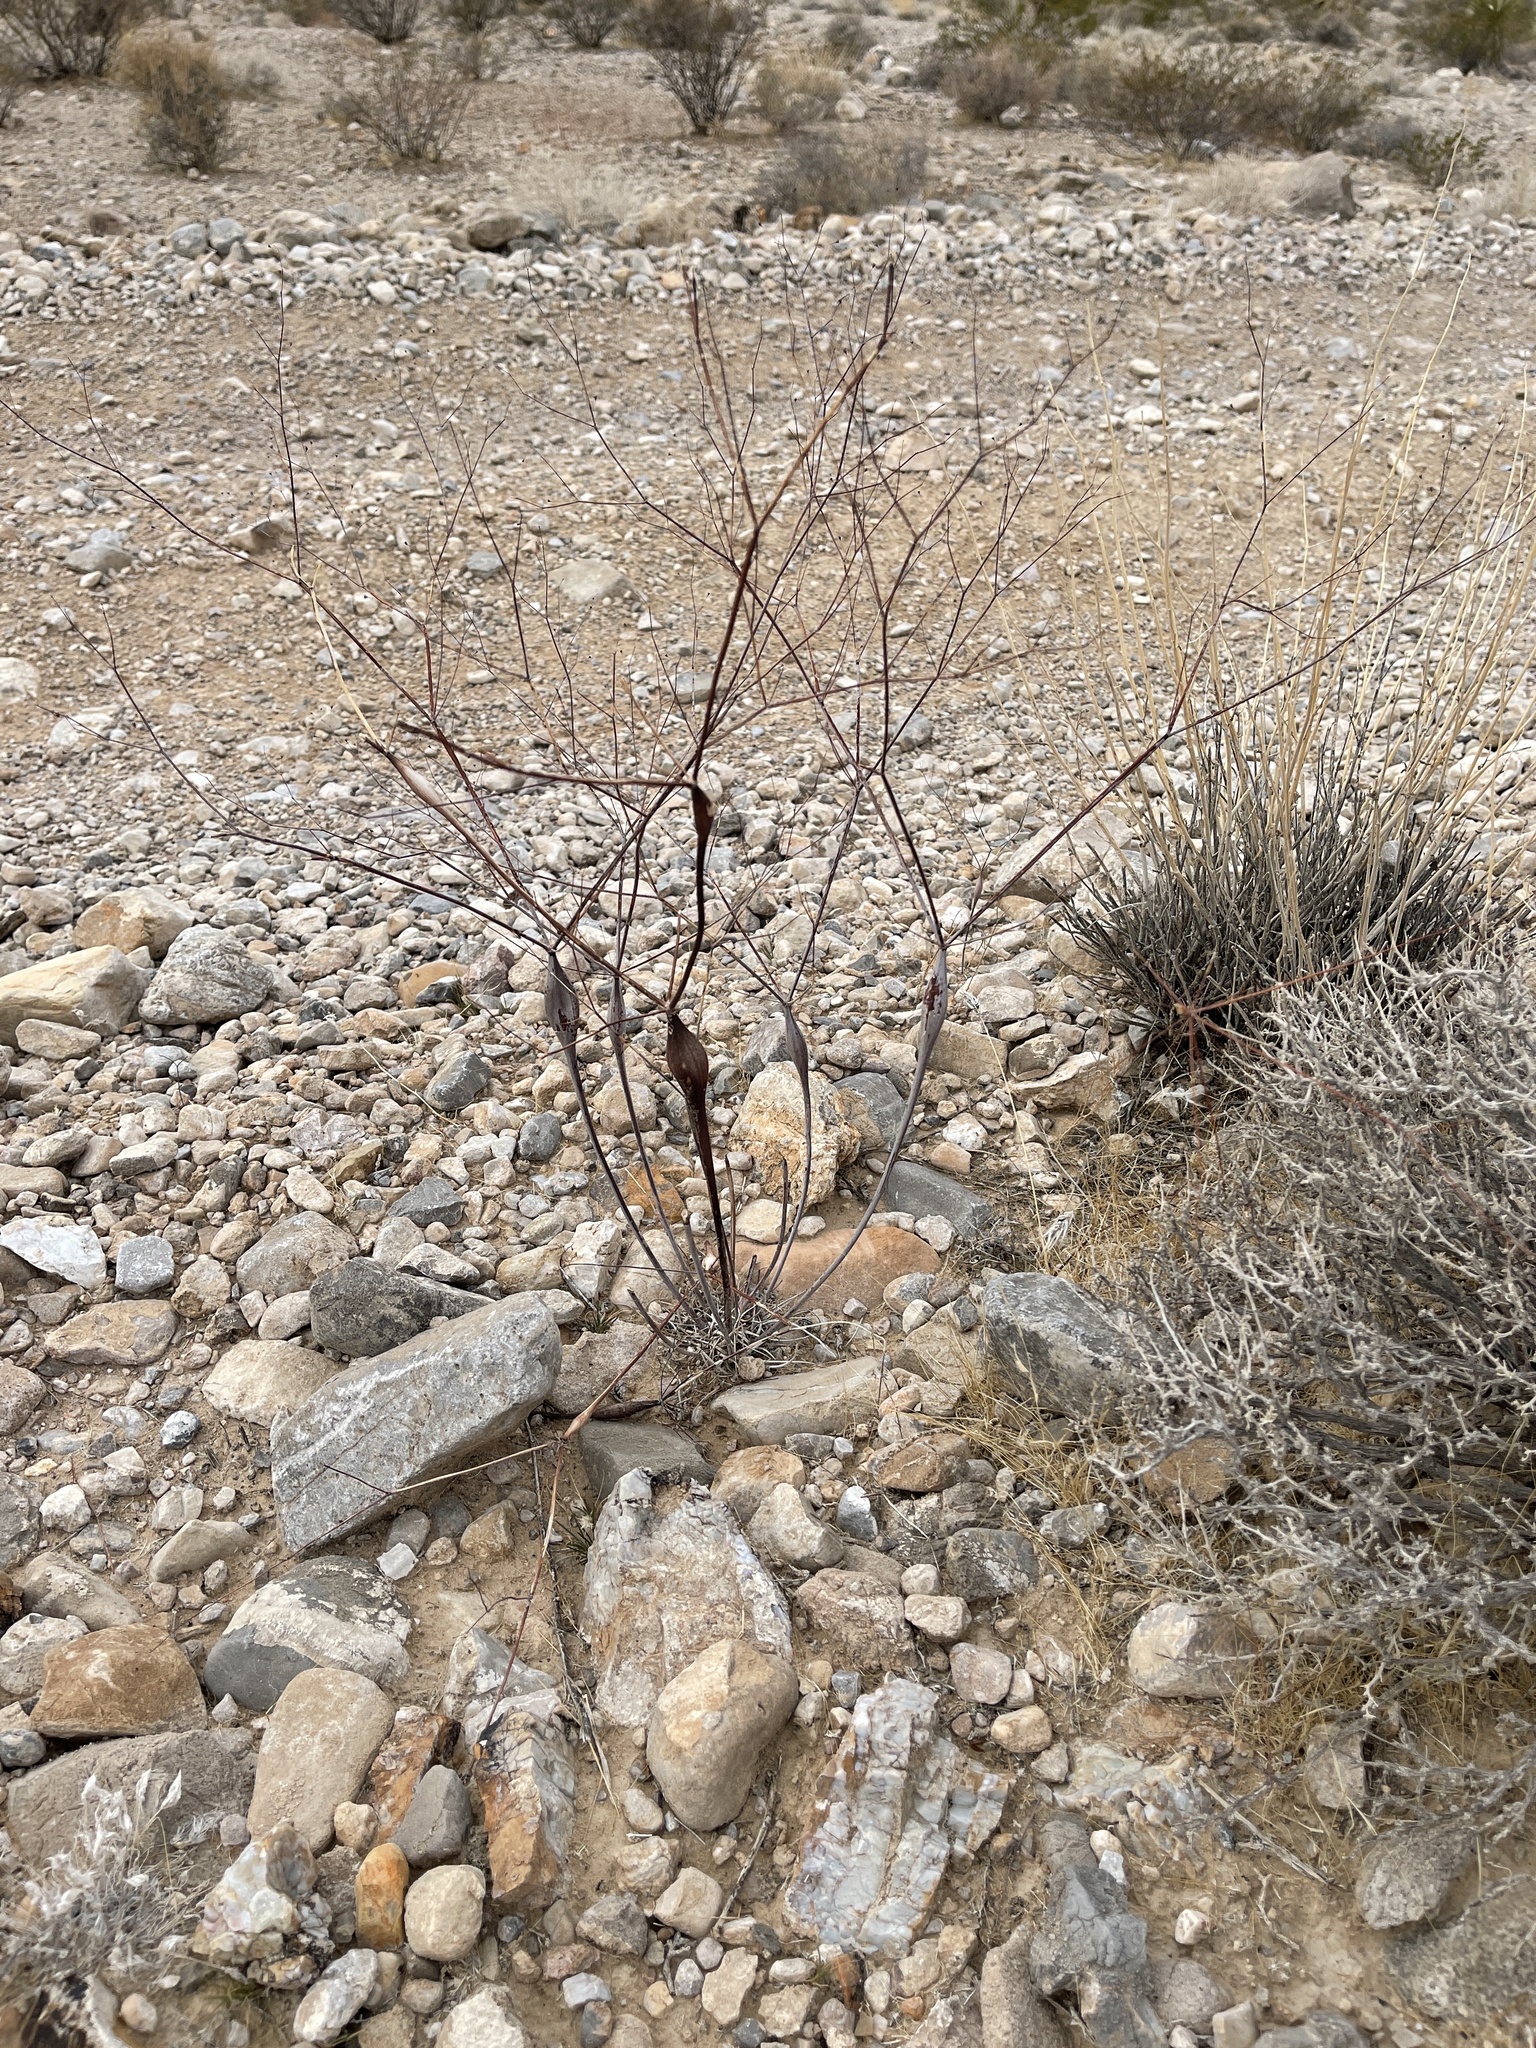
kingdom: Plantae
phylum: Tracheophyta
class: Magnoliopsida
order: Caryophyllales
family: Polygonaceae
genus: Eriogonum
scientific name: Eriogonum inflatum
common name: Desert trumpet
